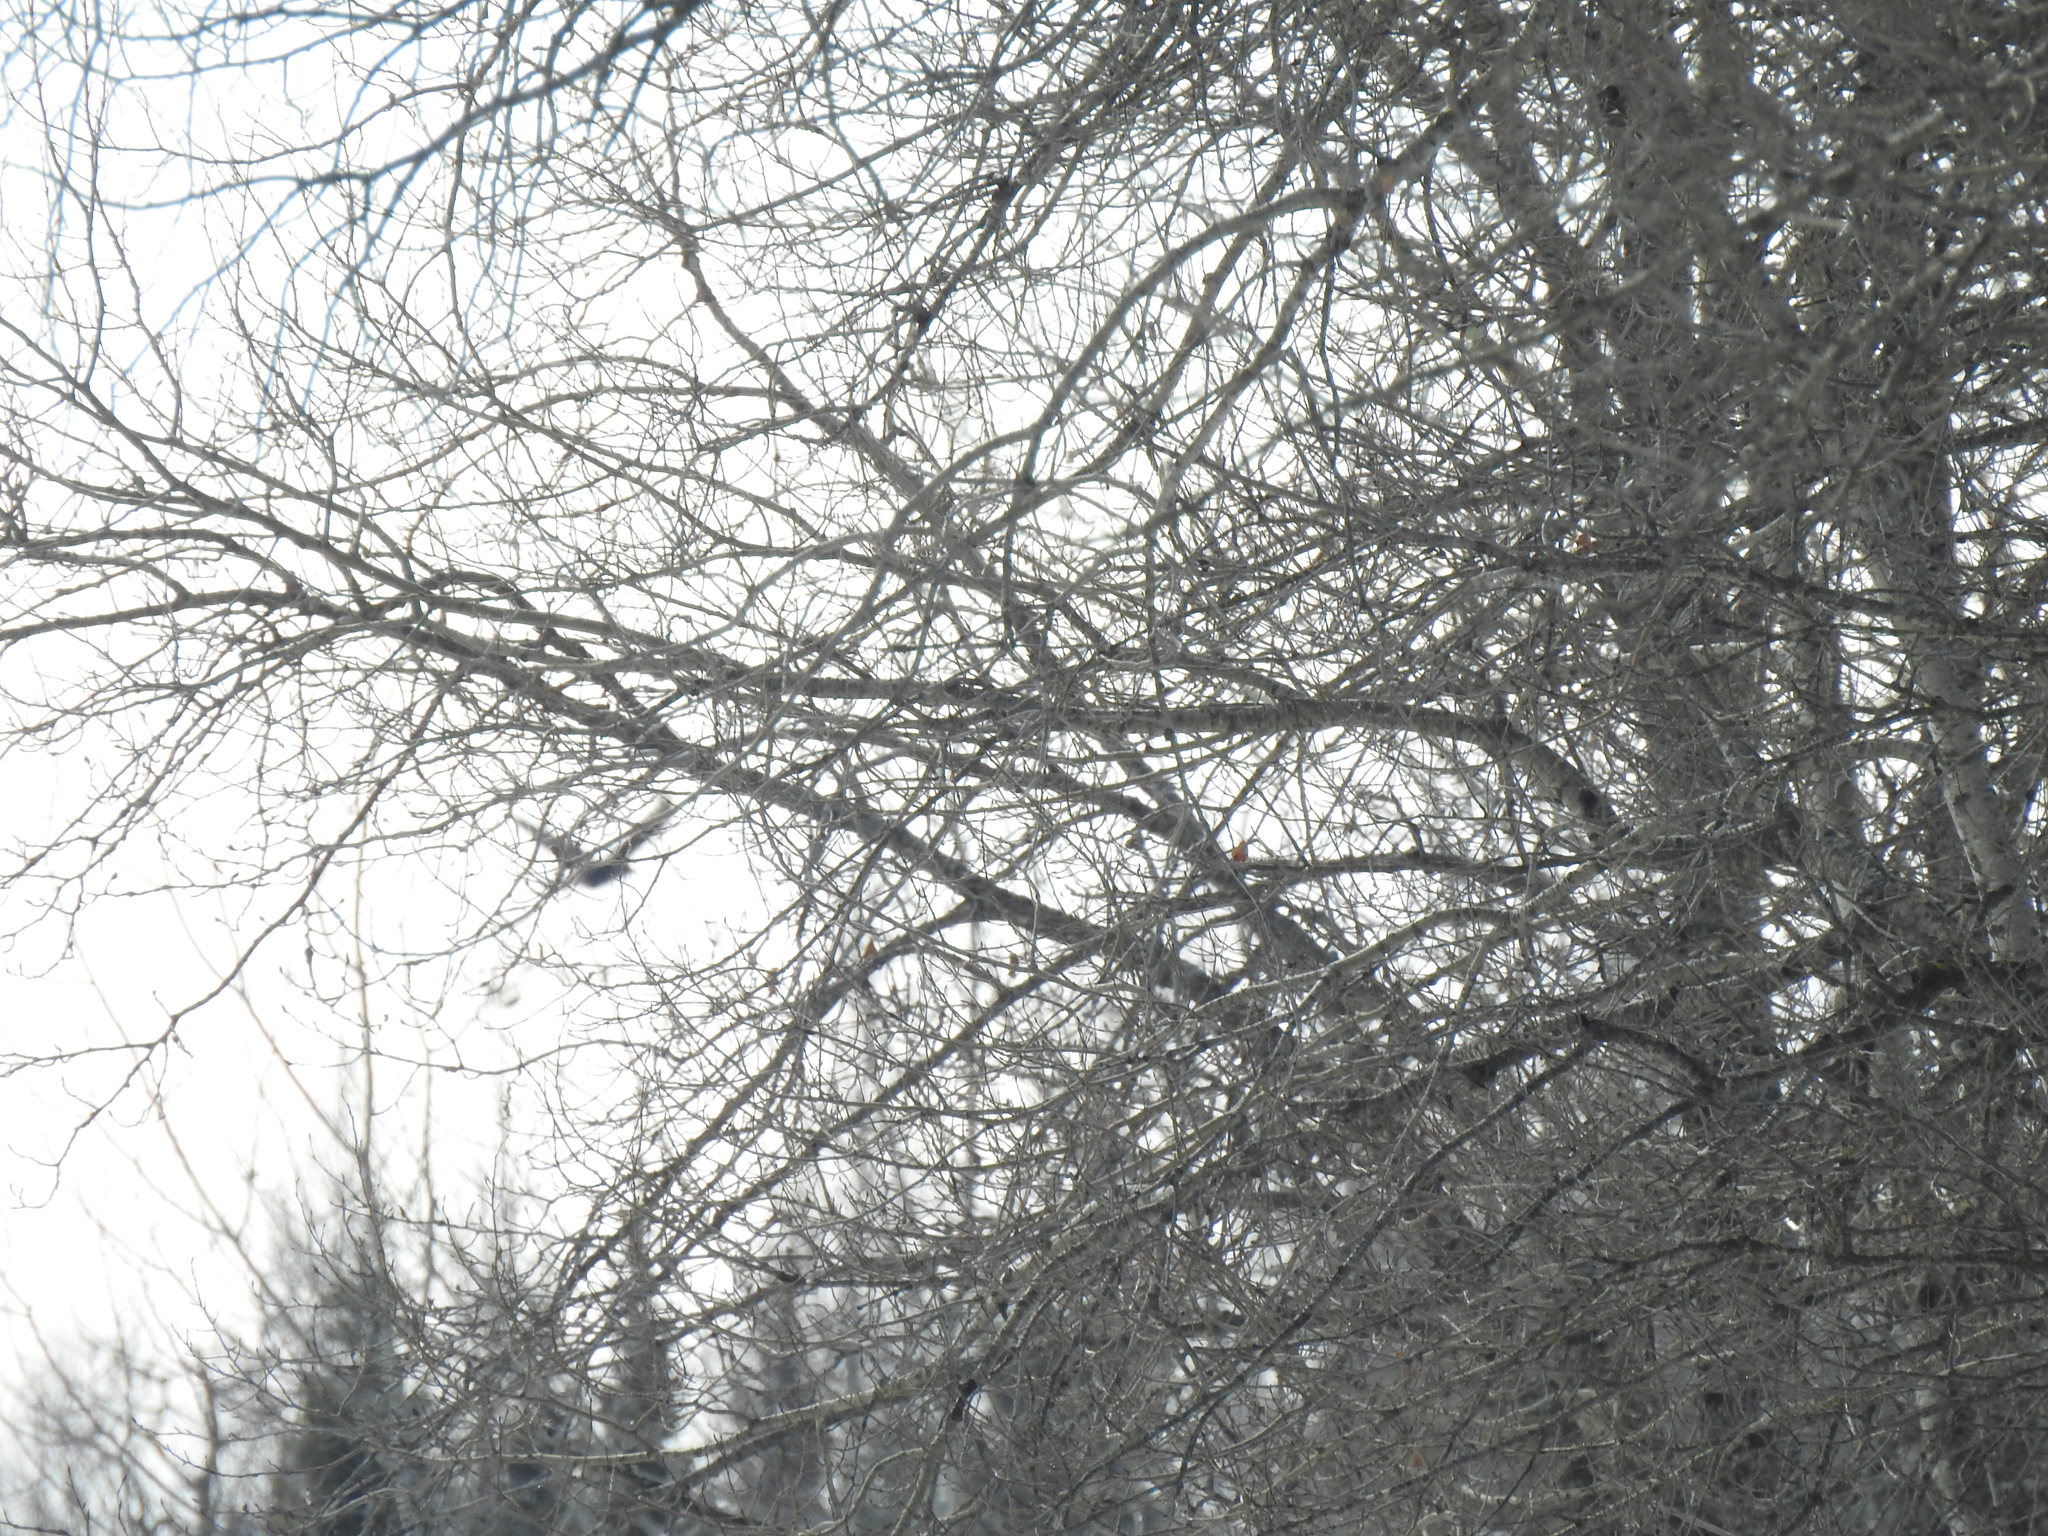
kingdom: Animalia
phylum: Chordata
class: Aves
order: Passeriformes
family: Corvidae
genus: Corvus
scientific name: Corvus corax
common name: Common raven
